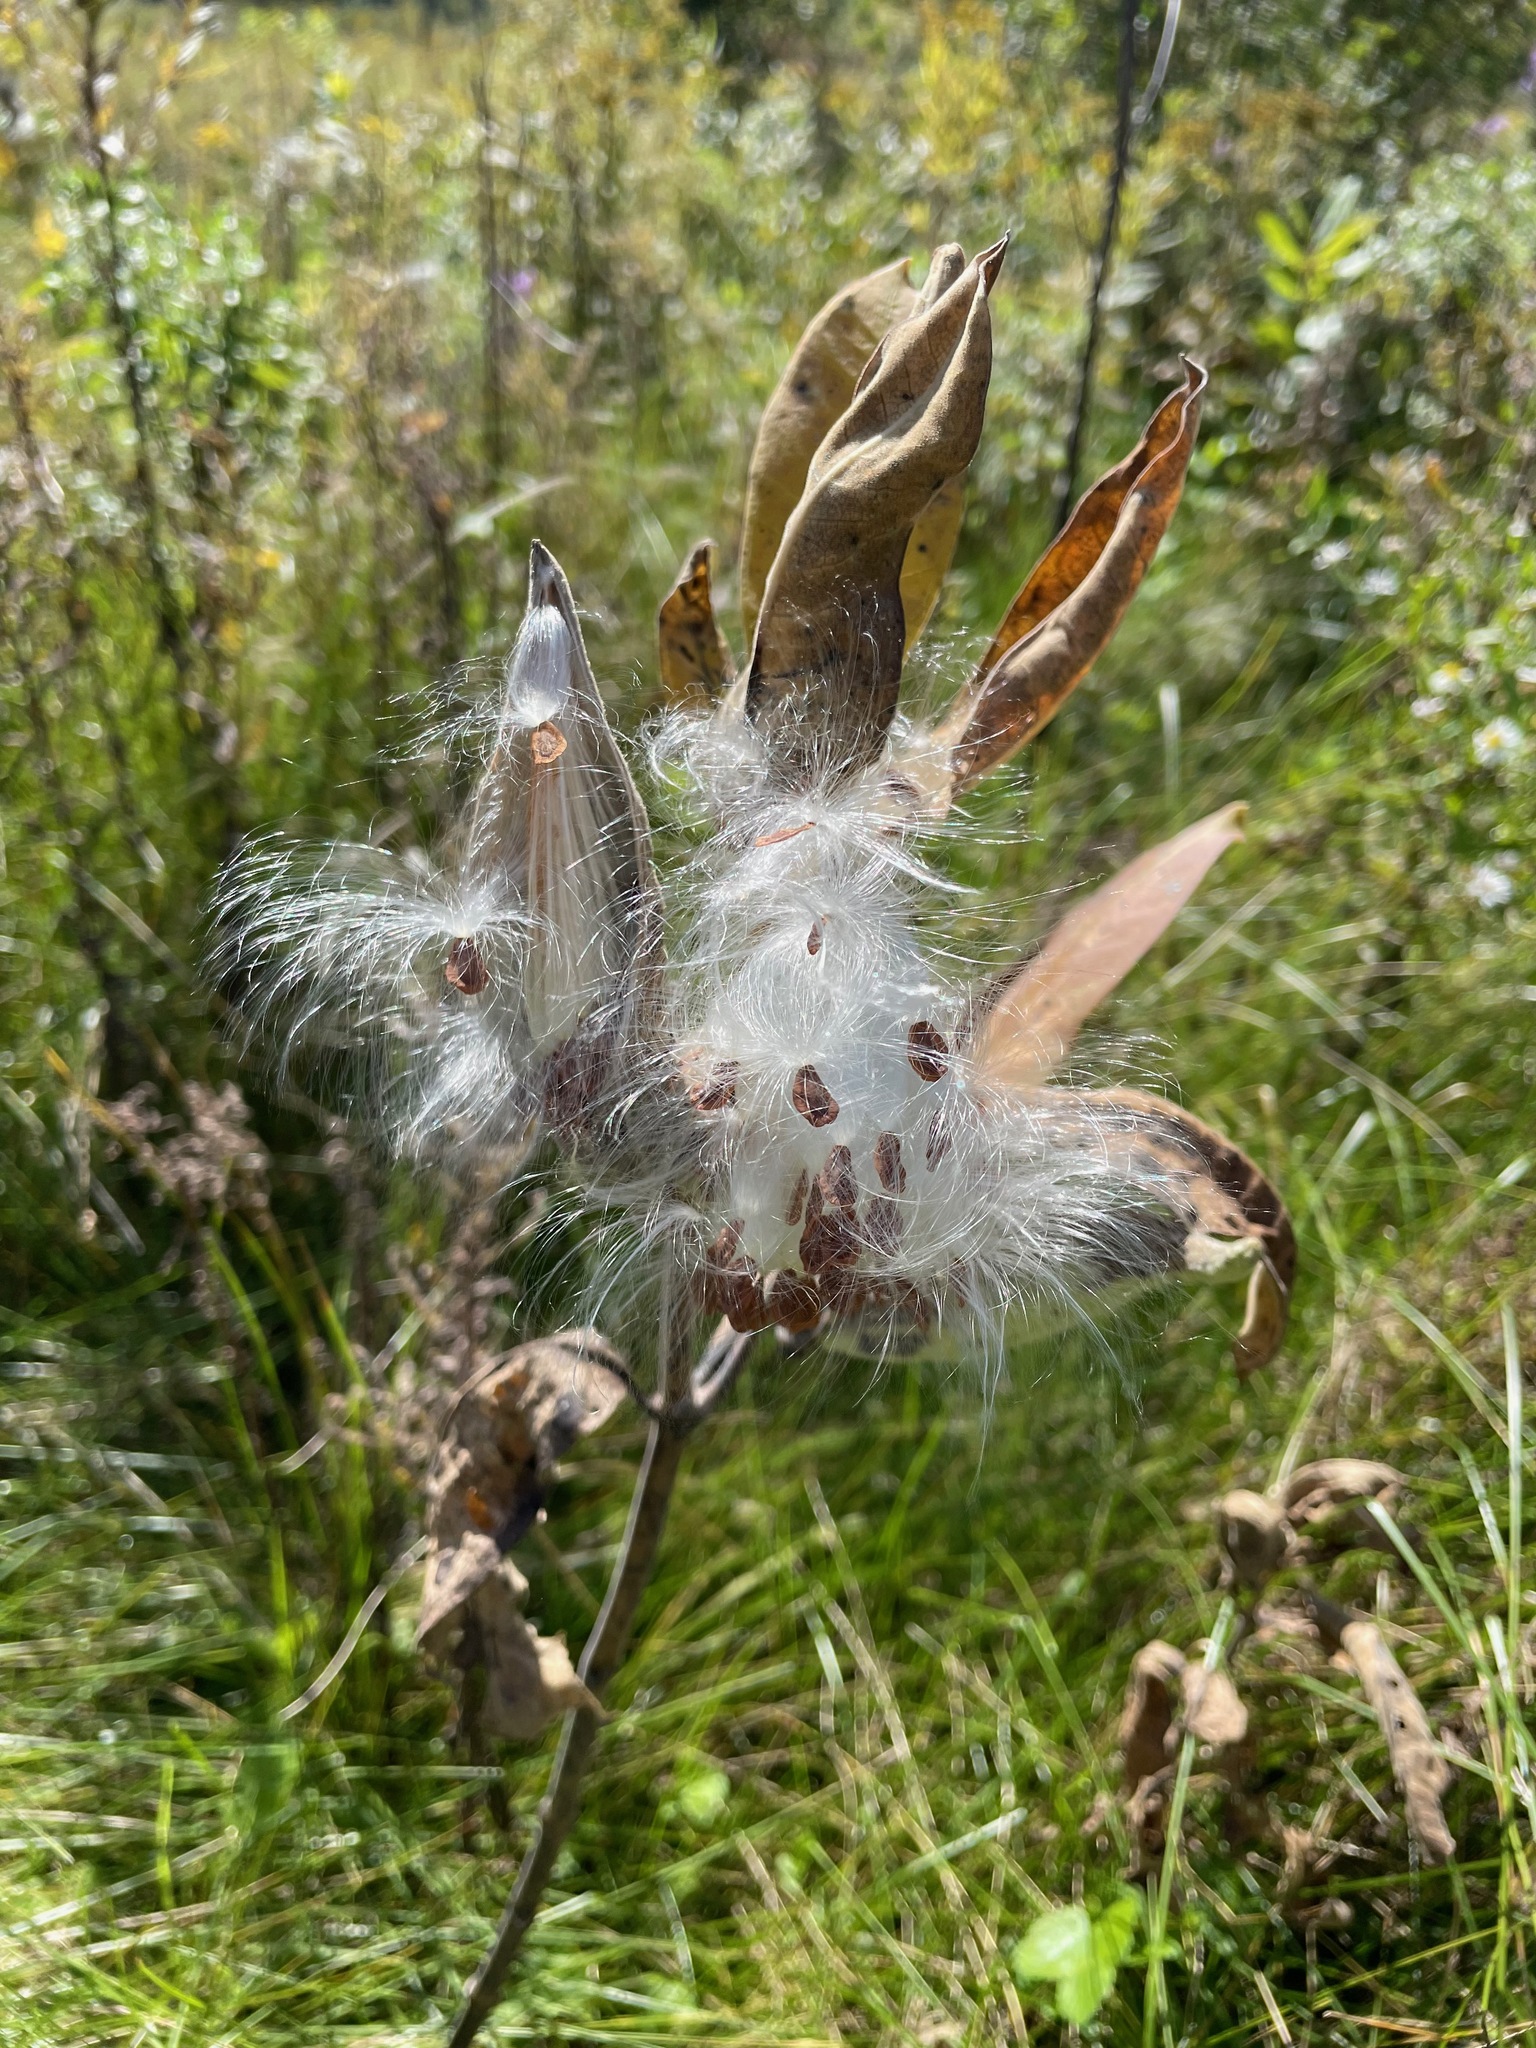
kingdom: Plantae
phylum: Tracheophyta
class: Magnoliopsida
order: Gentianales
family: Apocynaceae
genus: Asclepias
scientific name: Asclepias syriaca
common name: Common milkweed
